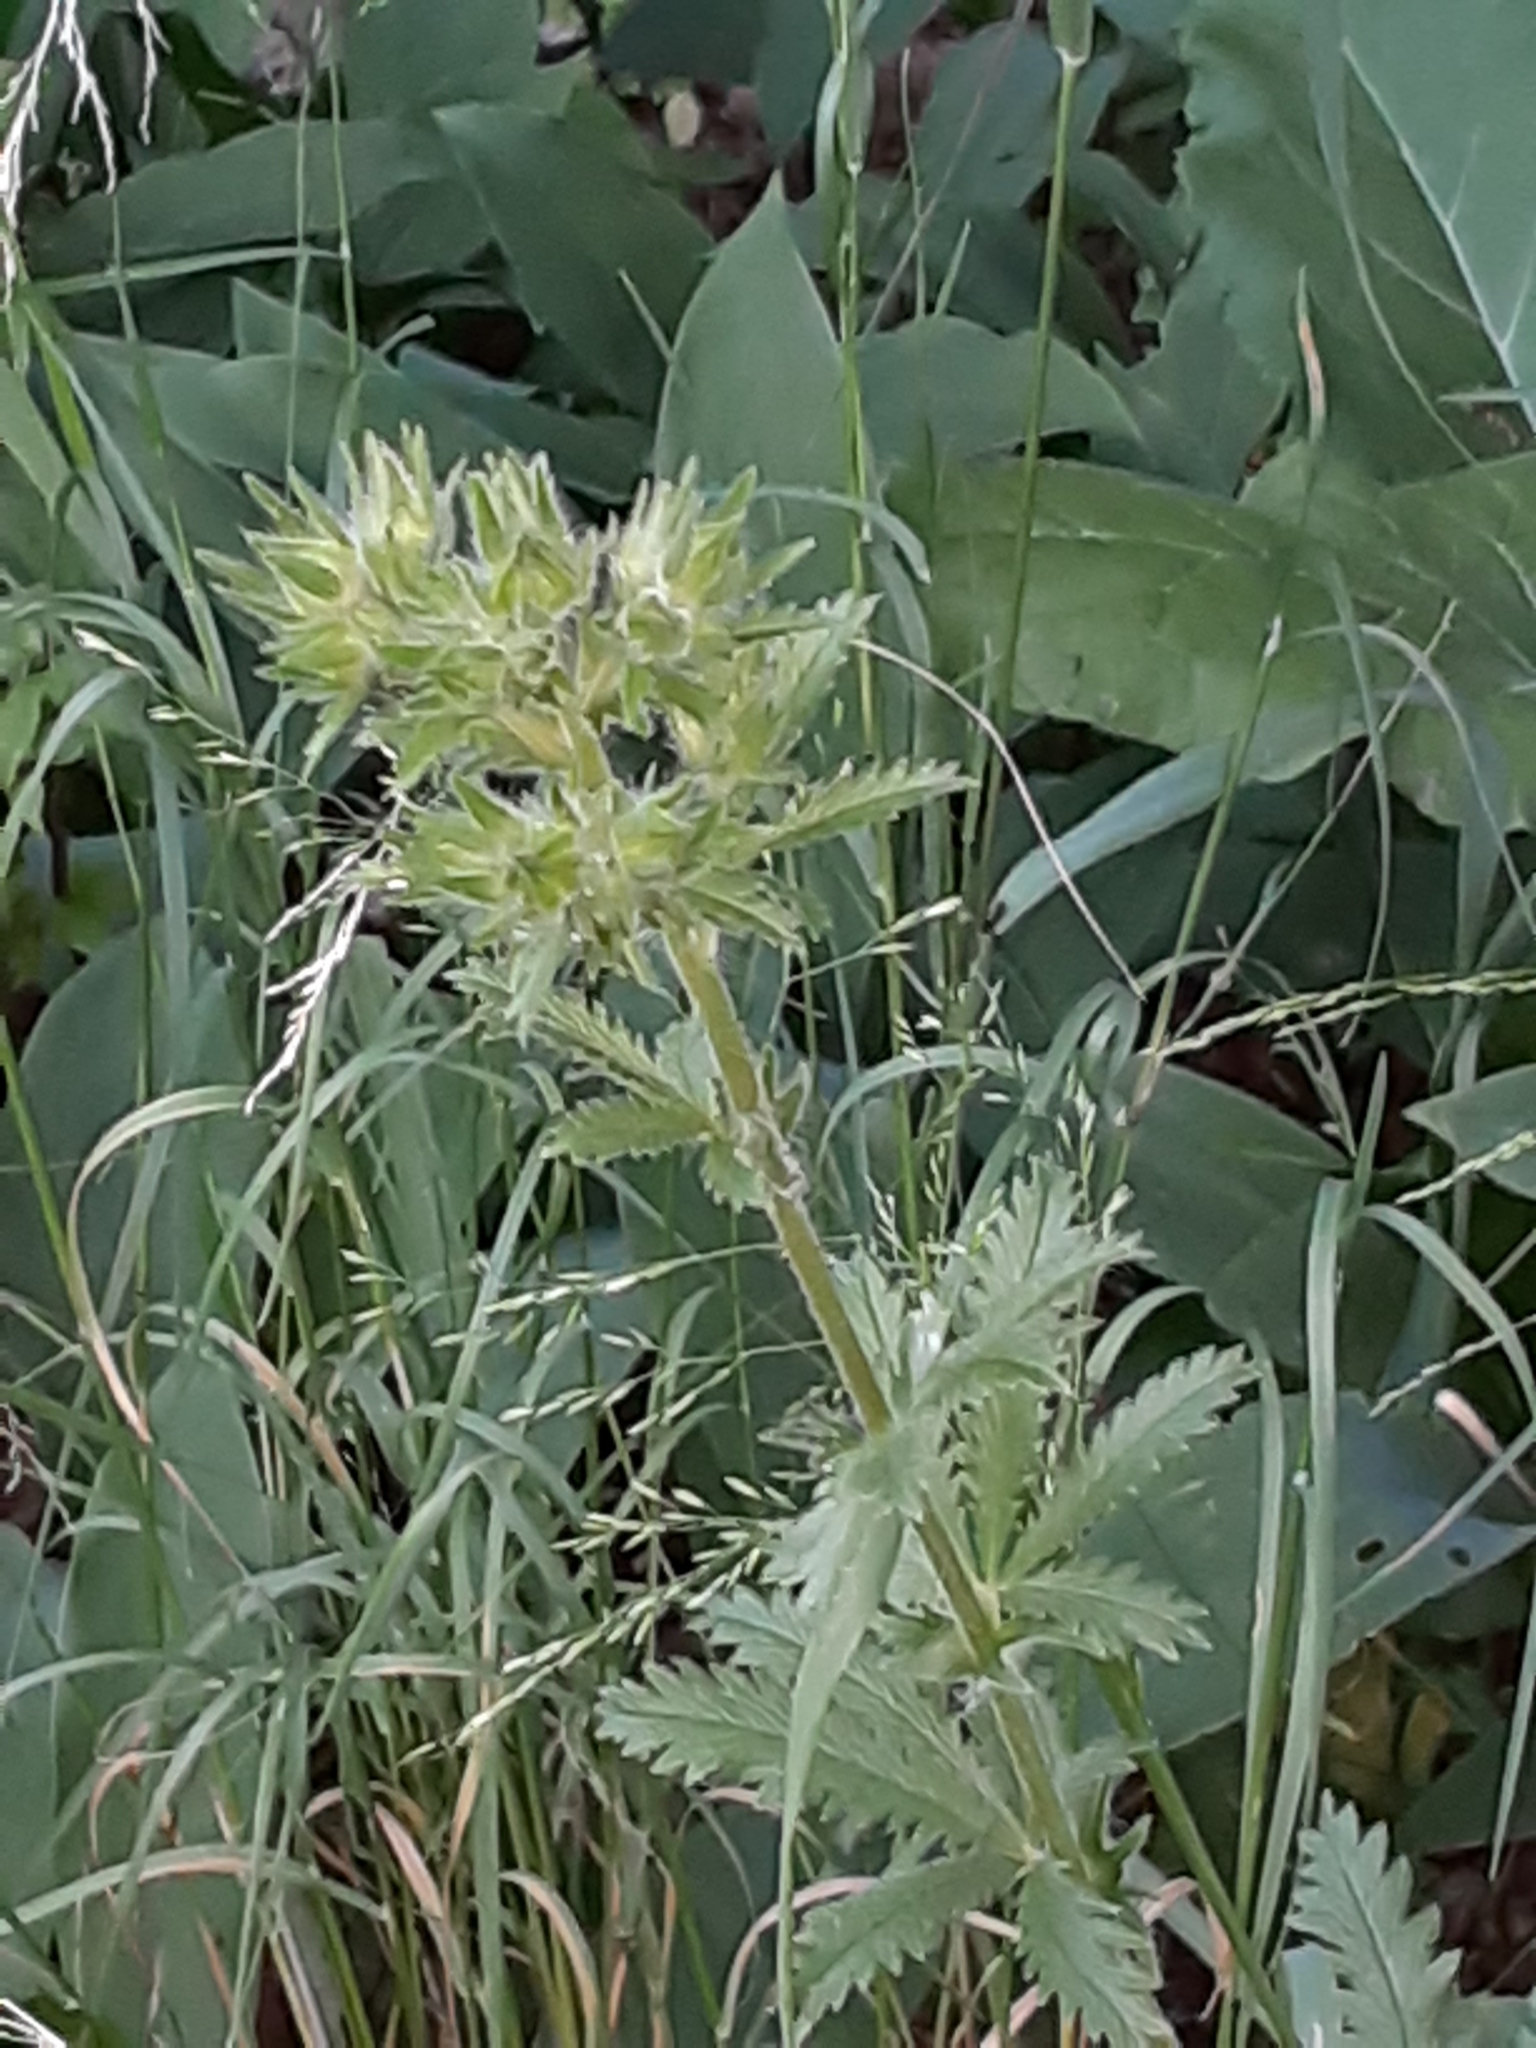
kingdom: Plantae
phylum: Tracheophyta
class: Magnoliopsida
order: Rosales
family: Rosaceae
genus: Potentilla
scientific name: Potentilla recta
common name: Sulphur cinquefoil
